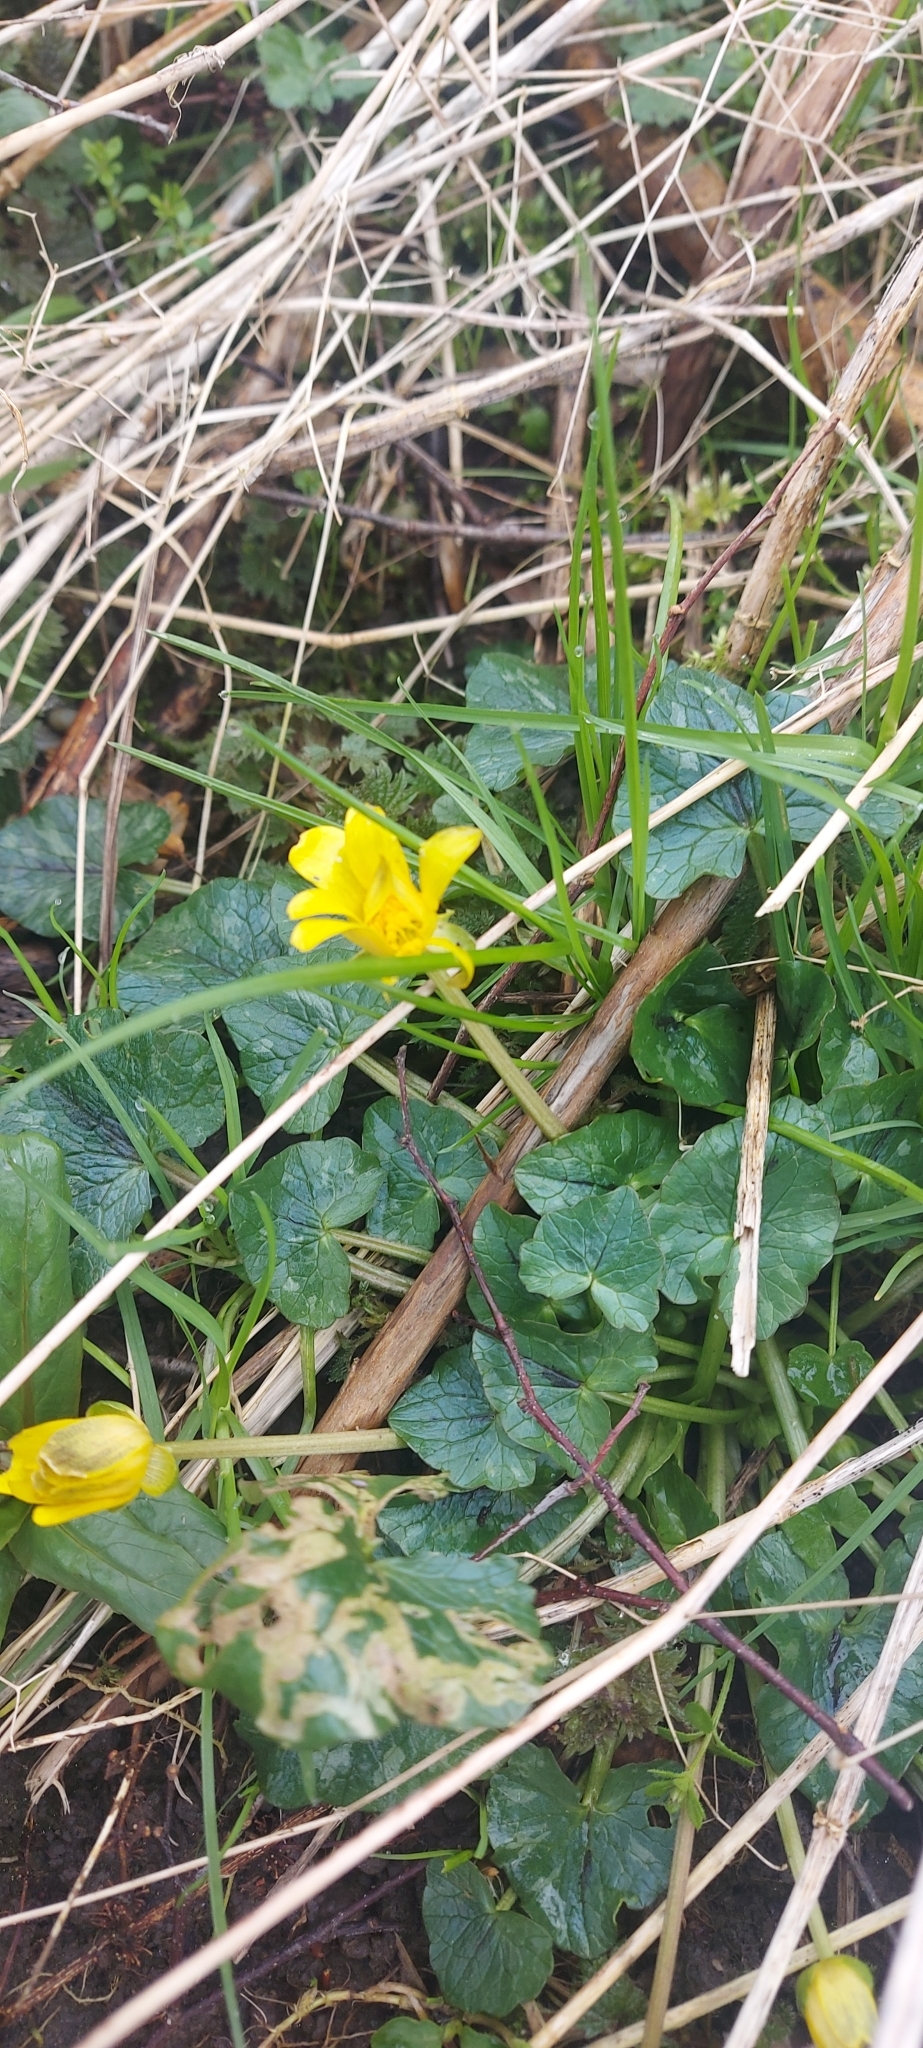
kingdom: Plantae
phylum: Tracheophyta
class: Magnoliopsida
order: Ranunculales
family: Ranunculaceae
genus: Ficaria
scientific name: Ficaria verna
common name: Lesser celandine
